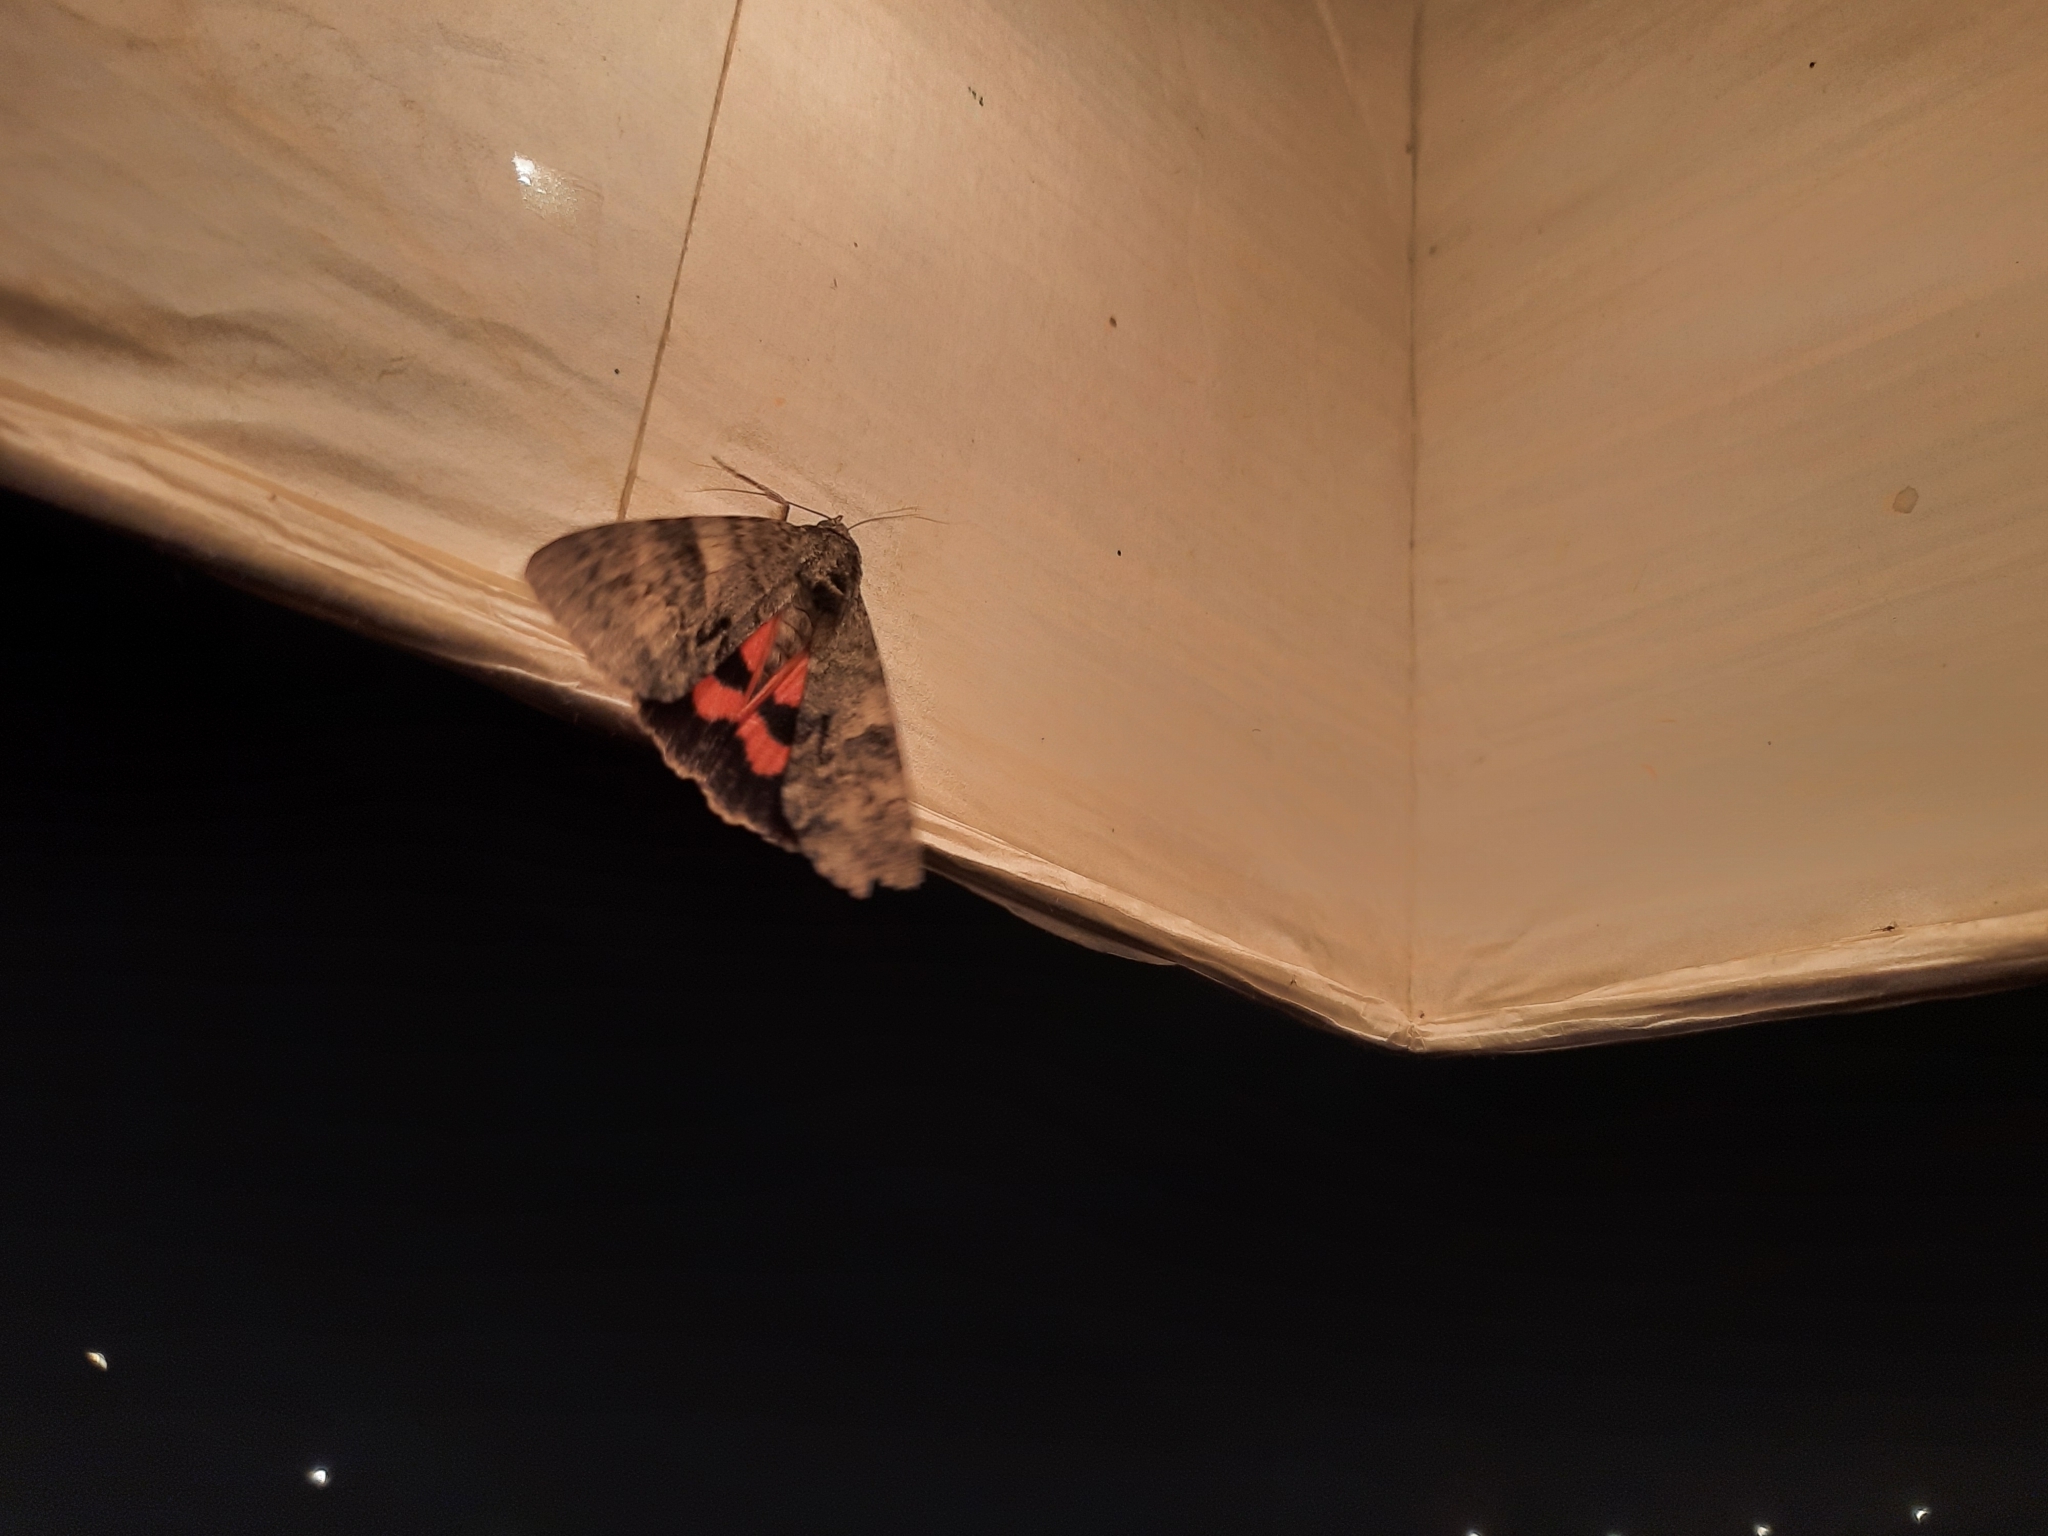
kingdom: Animalia
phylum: Arthropoda
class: Insecta
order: Lepidoptera
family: Erebidae
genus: Catocala
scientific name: Catocala nupta
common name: Red underwing
